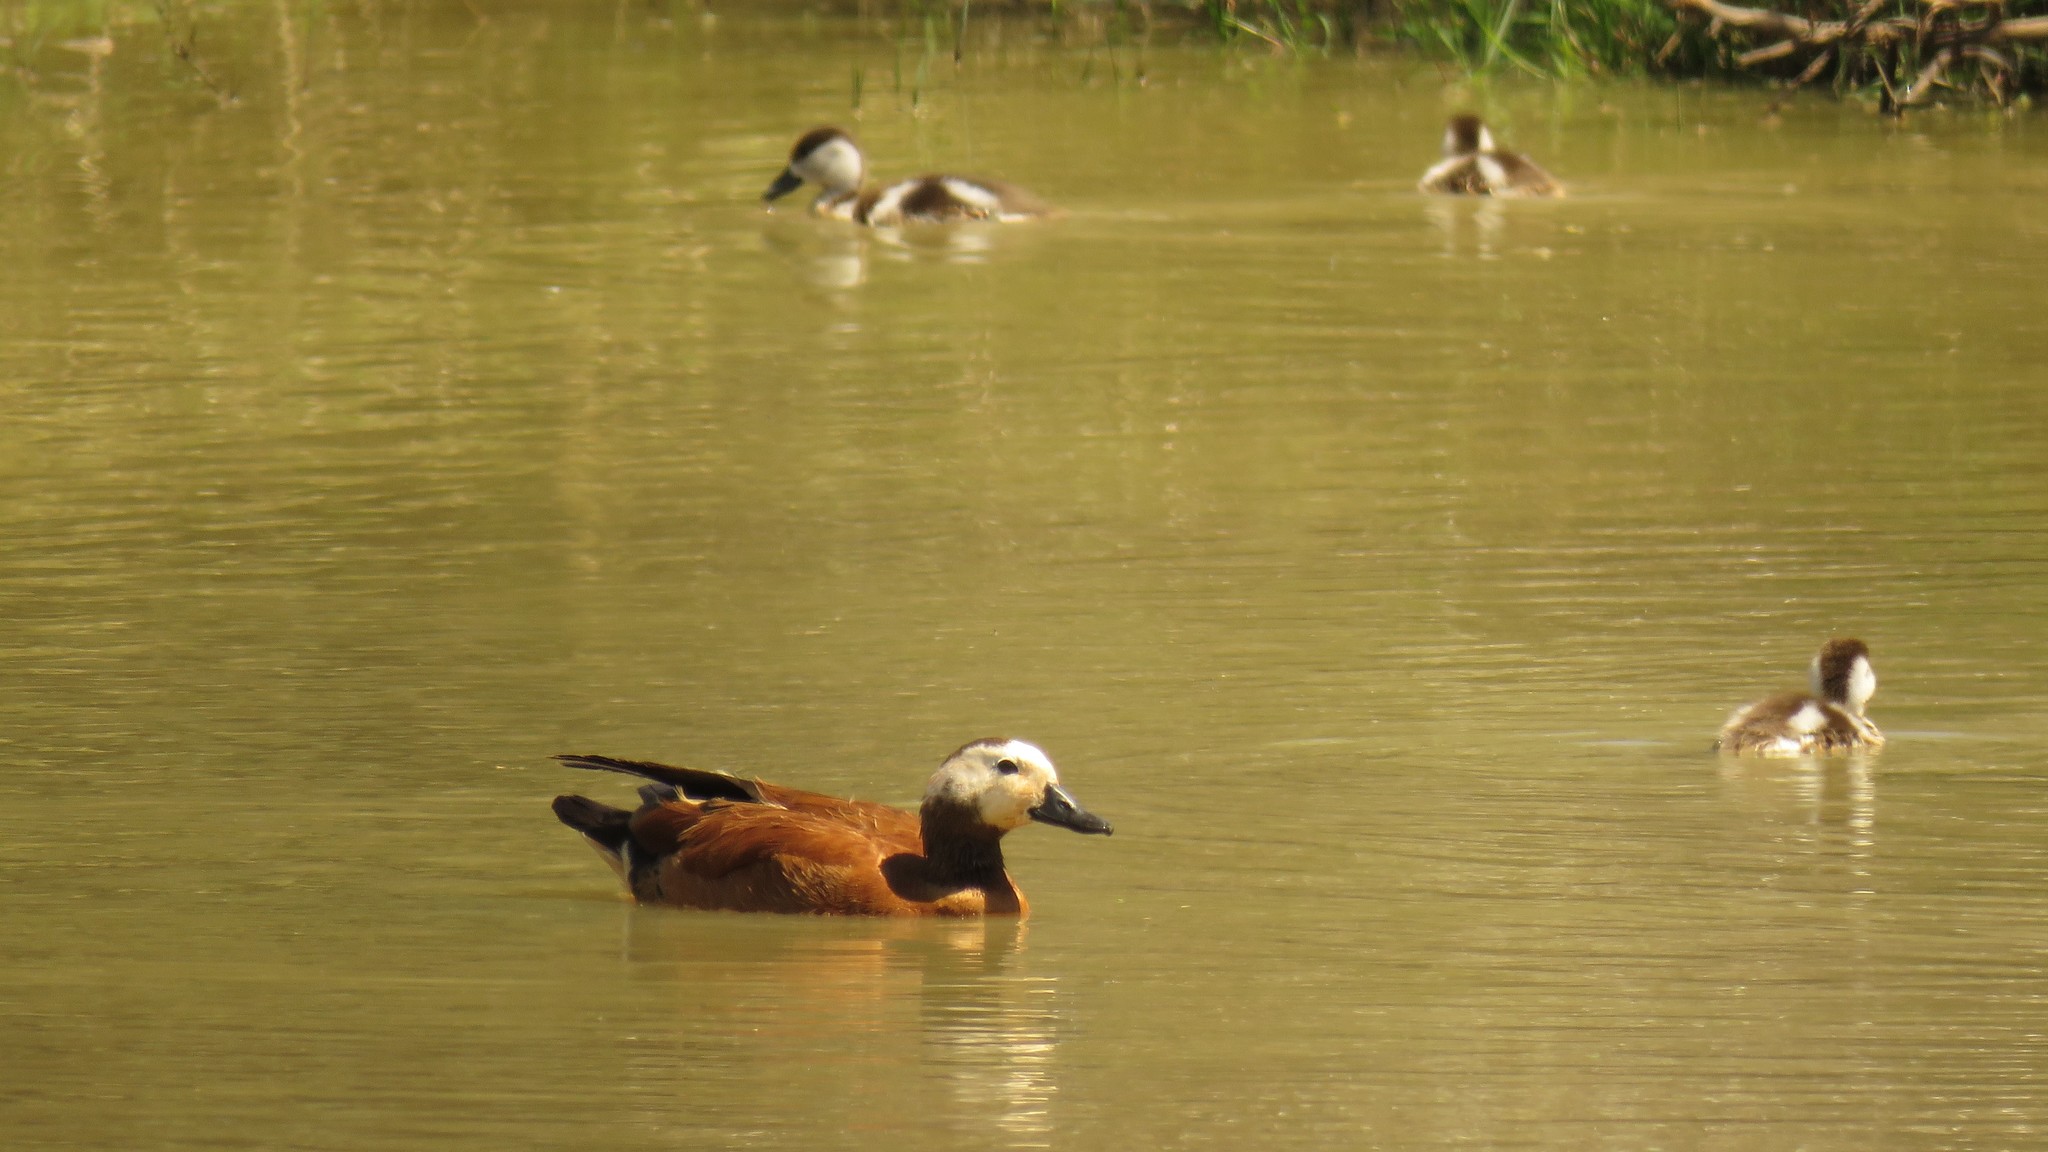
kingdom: Animalia
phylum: Chordata
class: Aves
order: Anseriformes
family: Anatidae
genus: Tadorna
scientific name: Tadorna cana
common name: South african shelduck
